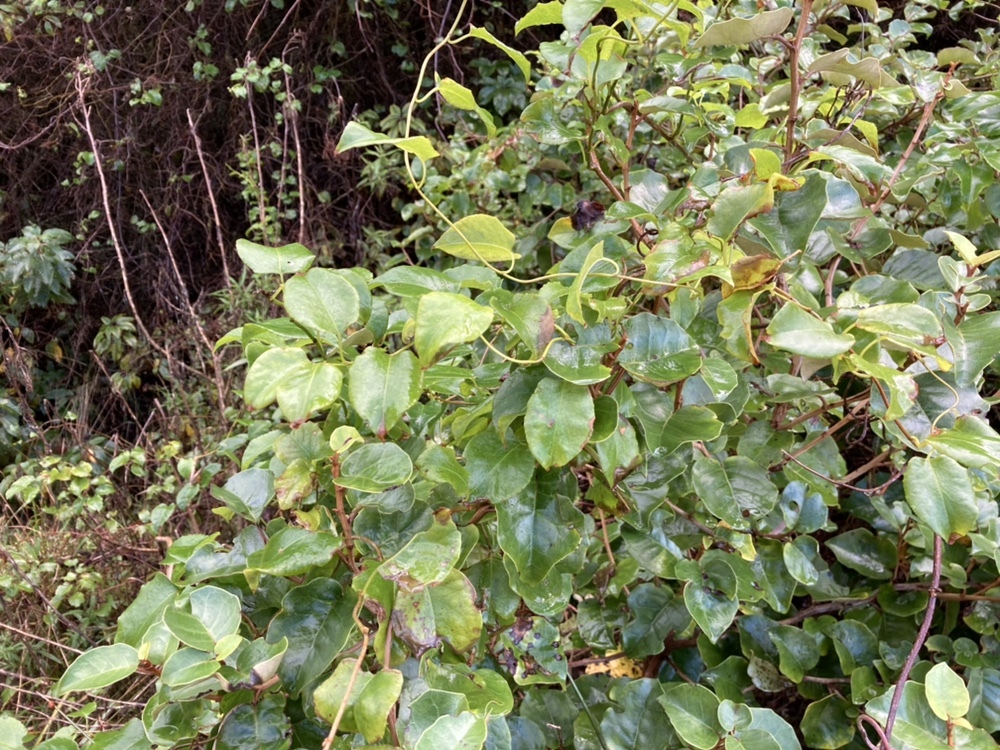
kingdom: Plantae
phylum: Tracheophyta
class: Magnoliopsida
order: Caryophyllales
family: Polygonaceae
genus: Muehlenbeckia
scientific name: Muehlenbeckia australis
